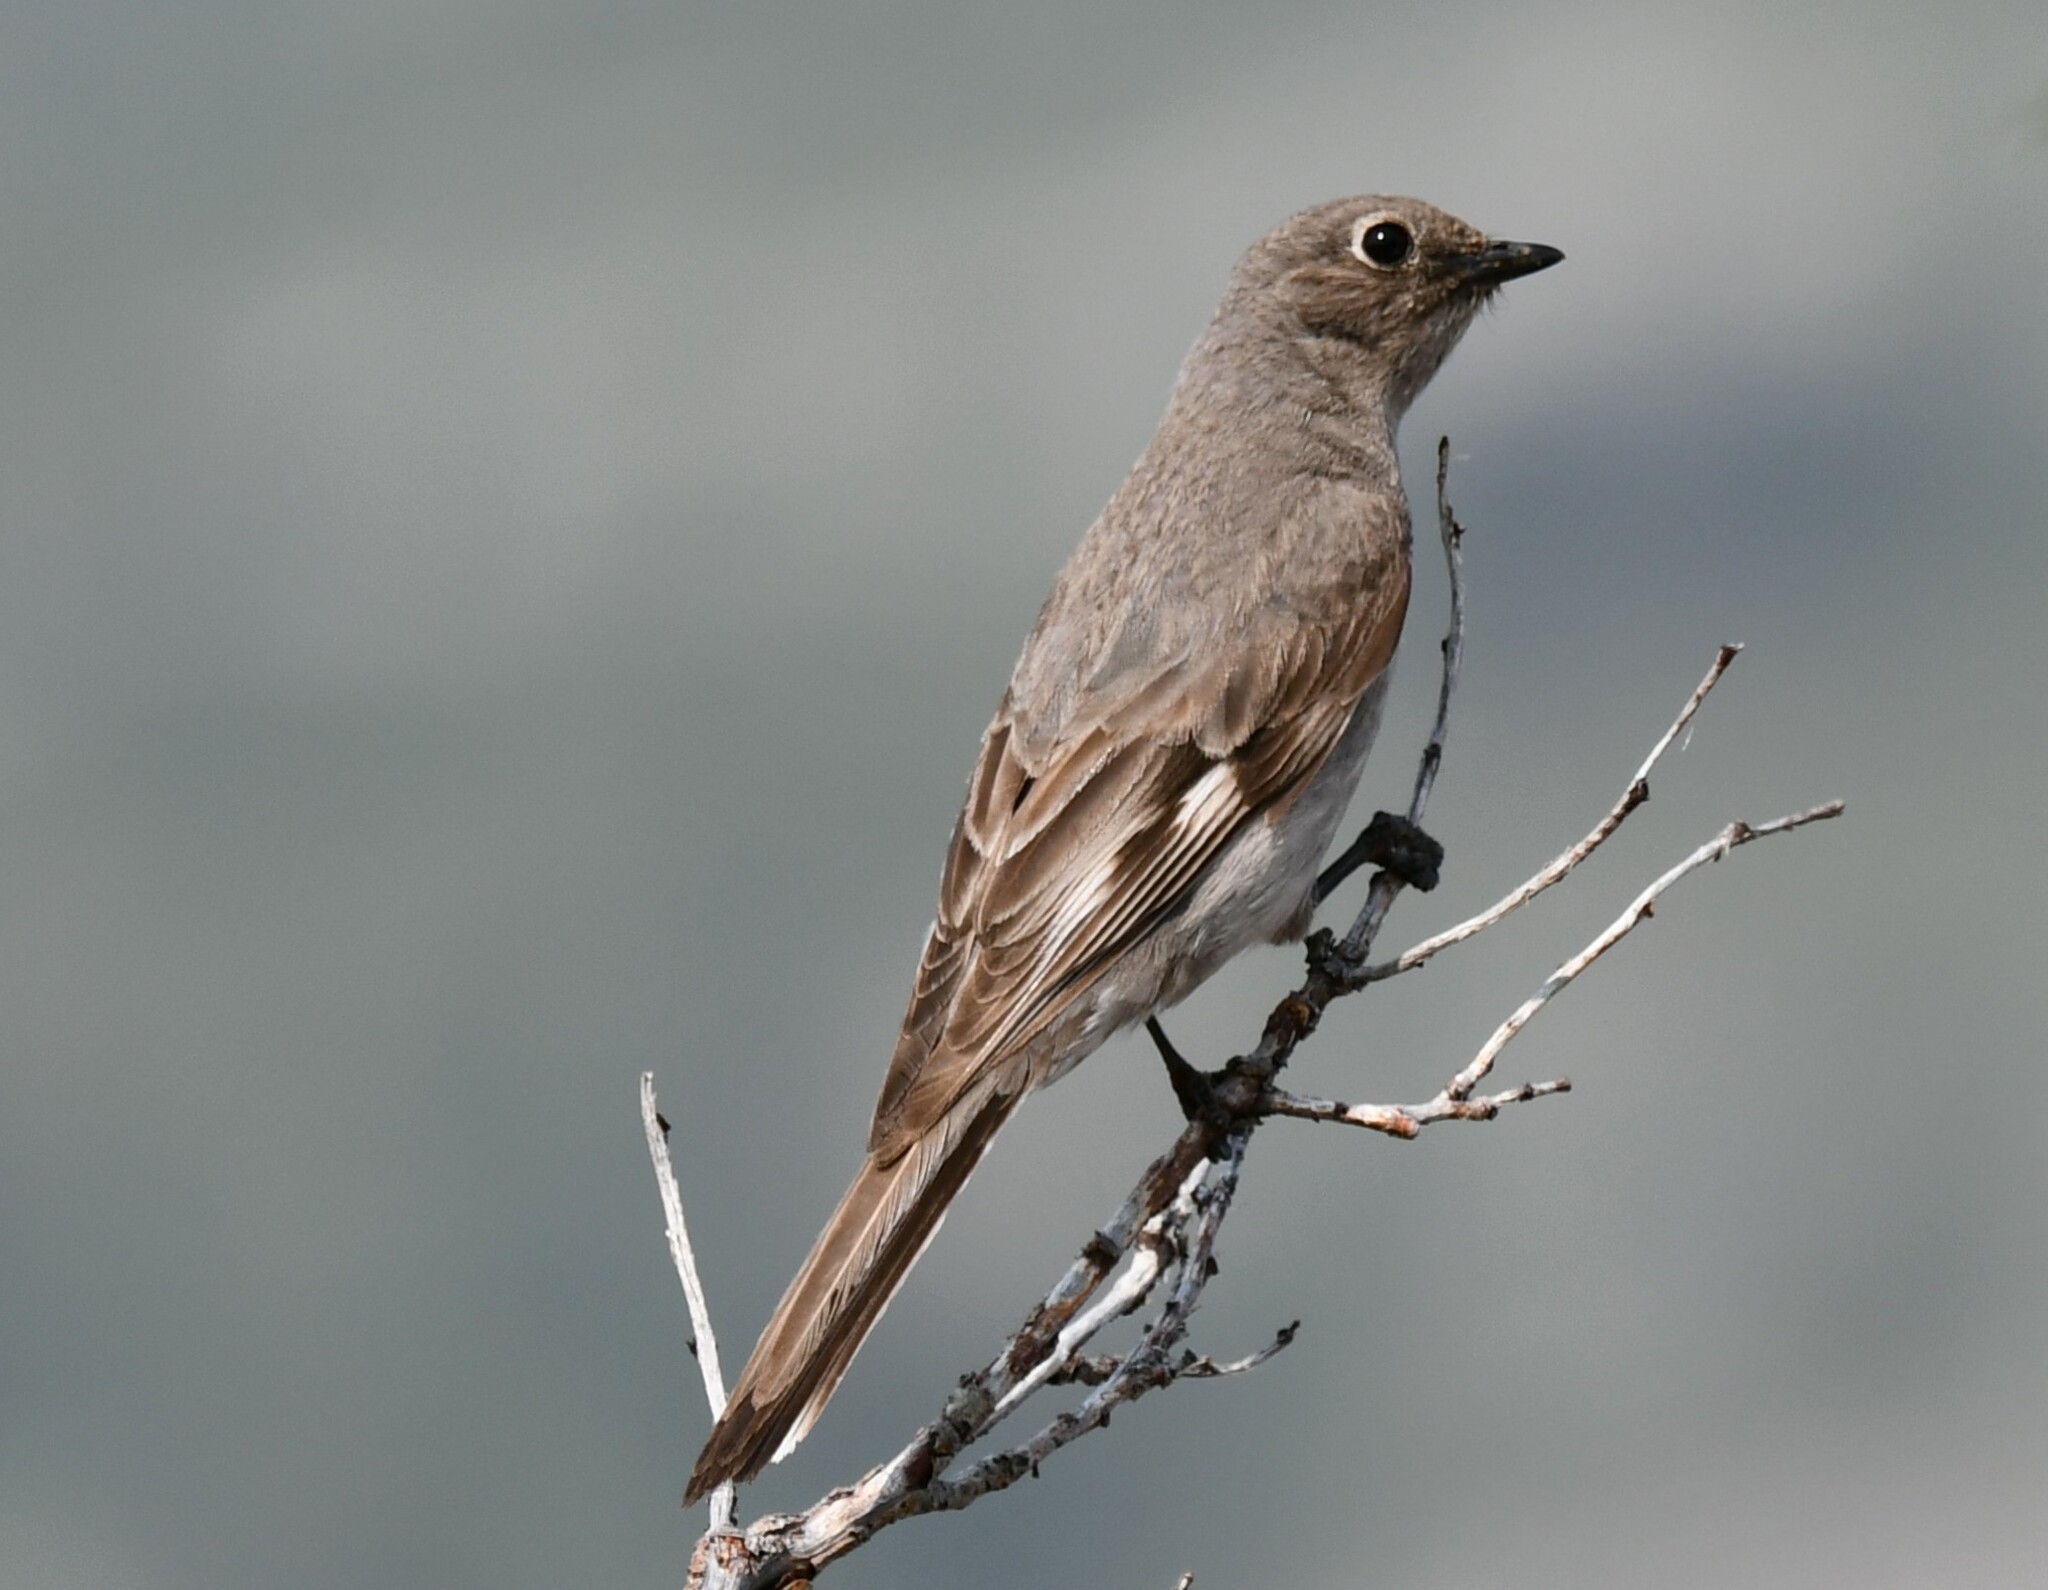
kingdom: Animalia
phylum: Chordata
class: Aves
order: Passeriformes
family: Turdidae
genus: Myadestes
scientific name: Myadestes townsendi
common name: Townsend's solitaire
